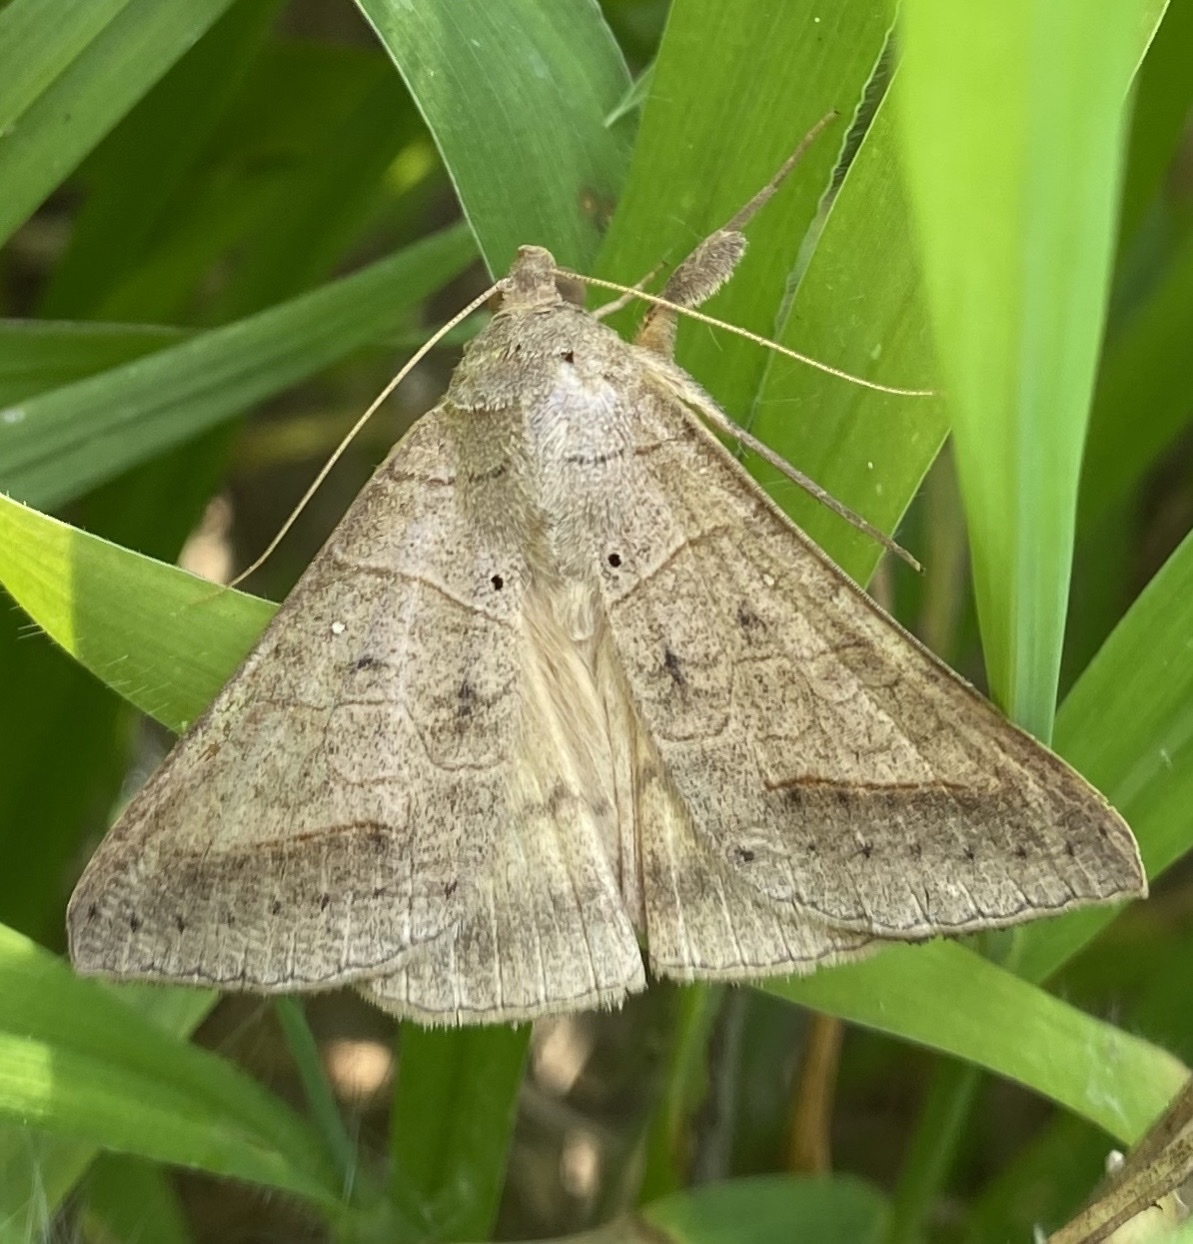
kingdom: Animalia
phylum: Arthropoda
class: Insecta
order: Lepidoptera
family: Erebidae
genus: Mocis
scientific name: Mocis marcida
